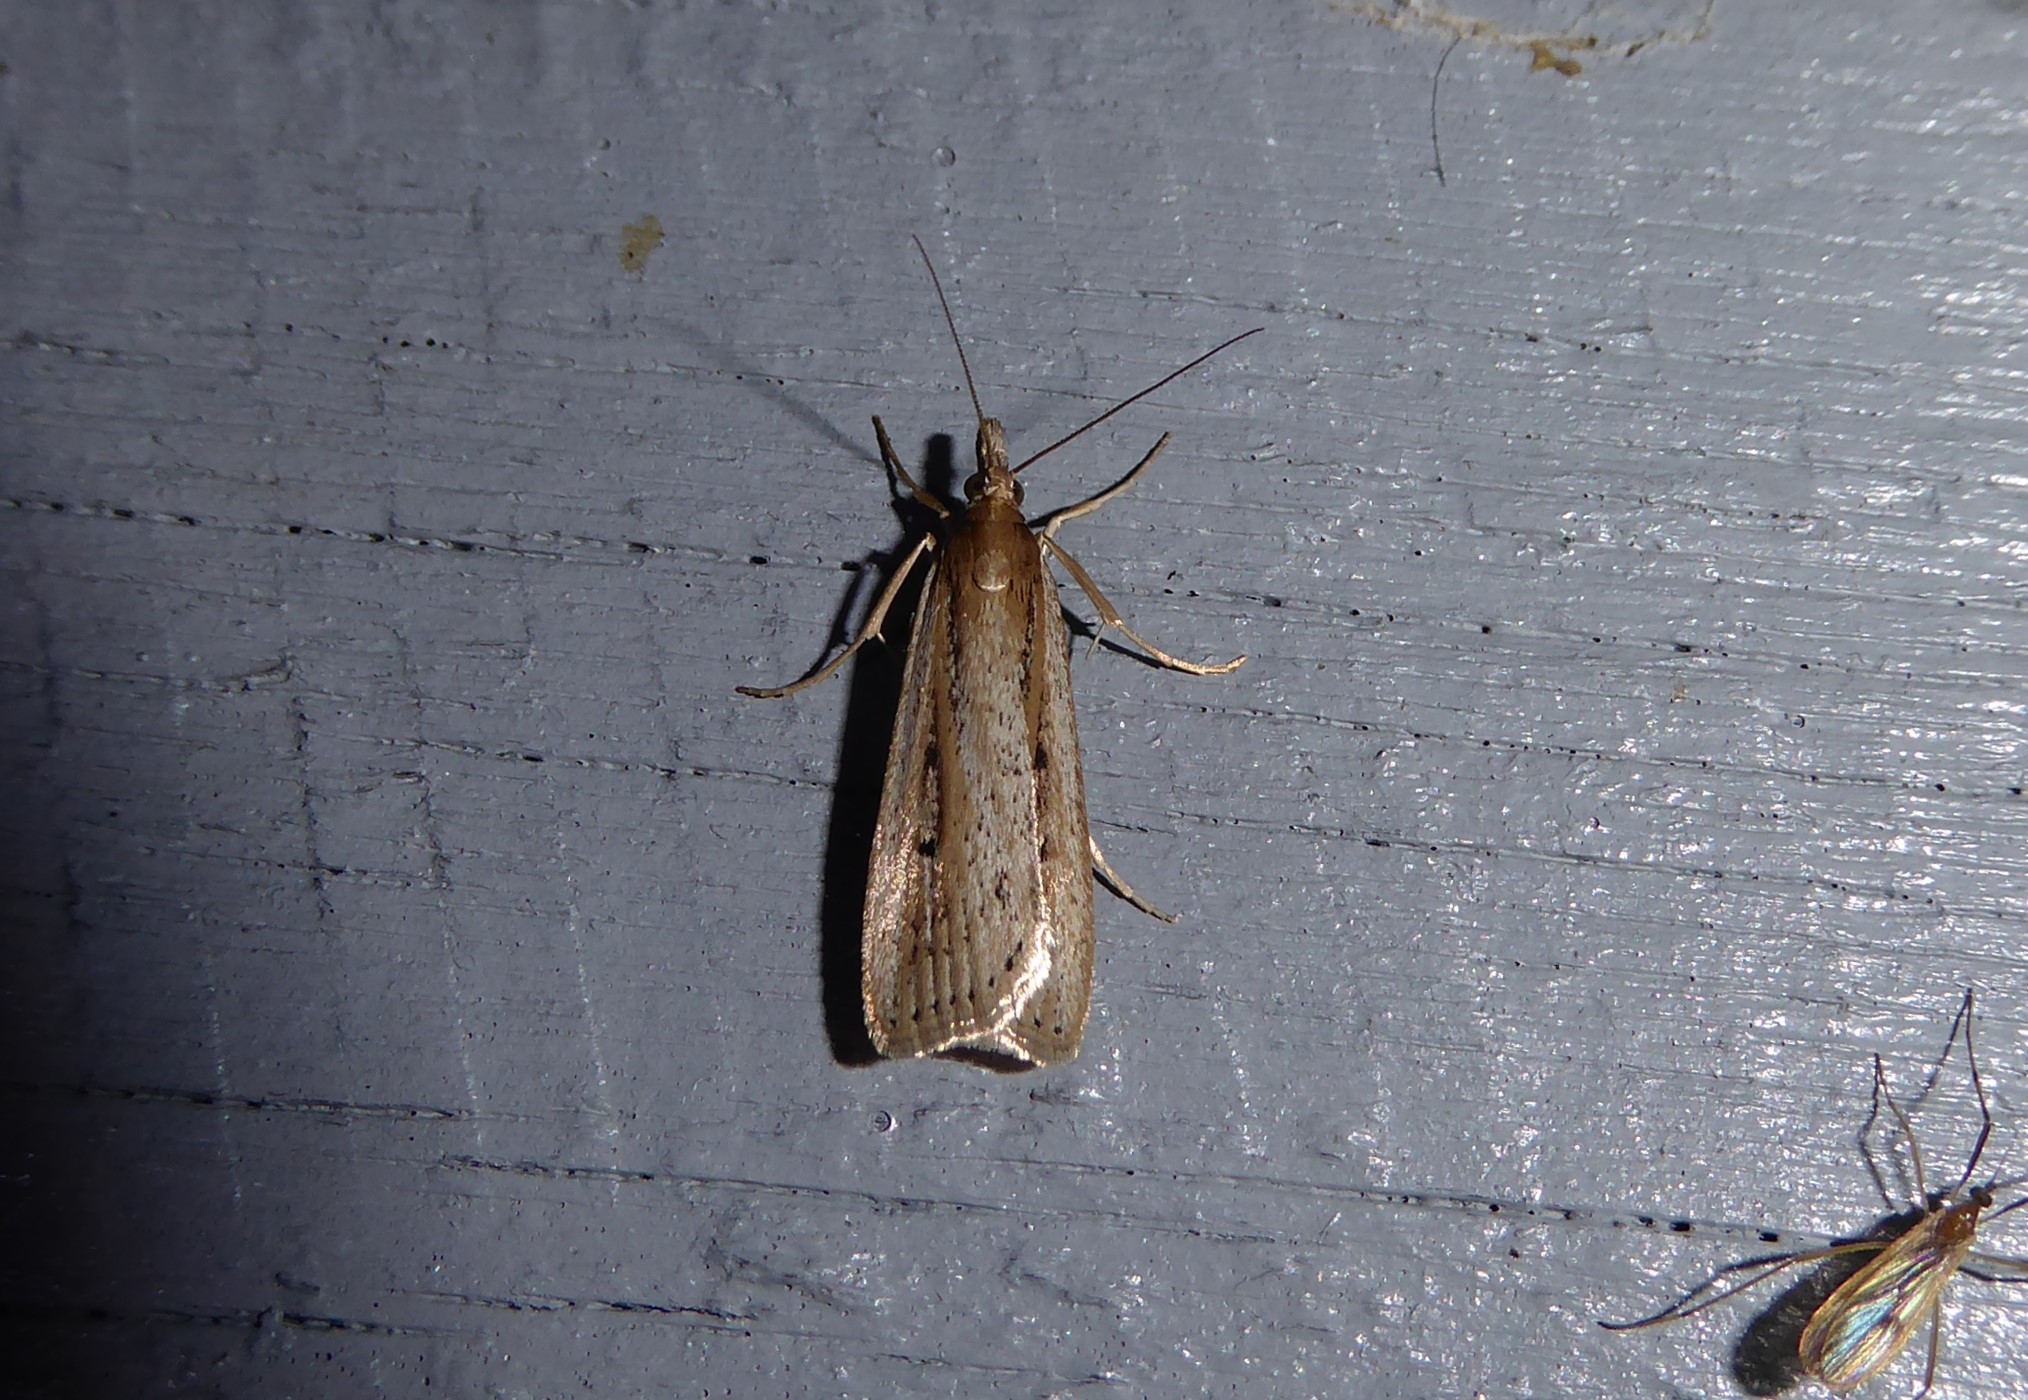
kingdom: Animalia
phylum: Arthropoda
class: Insecta
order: Lepidoptera
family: Crambidae
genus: Eudonia
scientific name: Eudonia sabulosella
